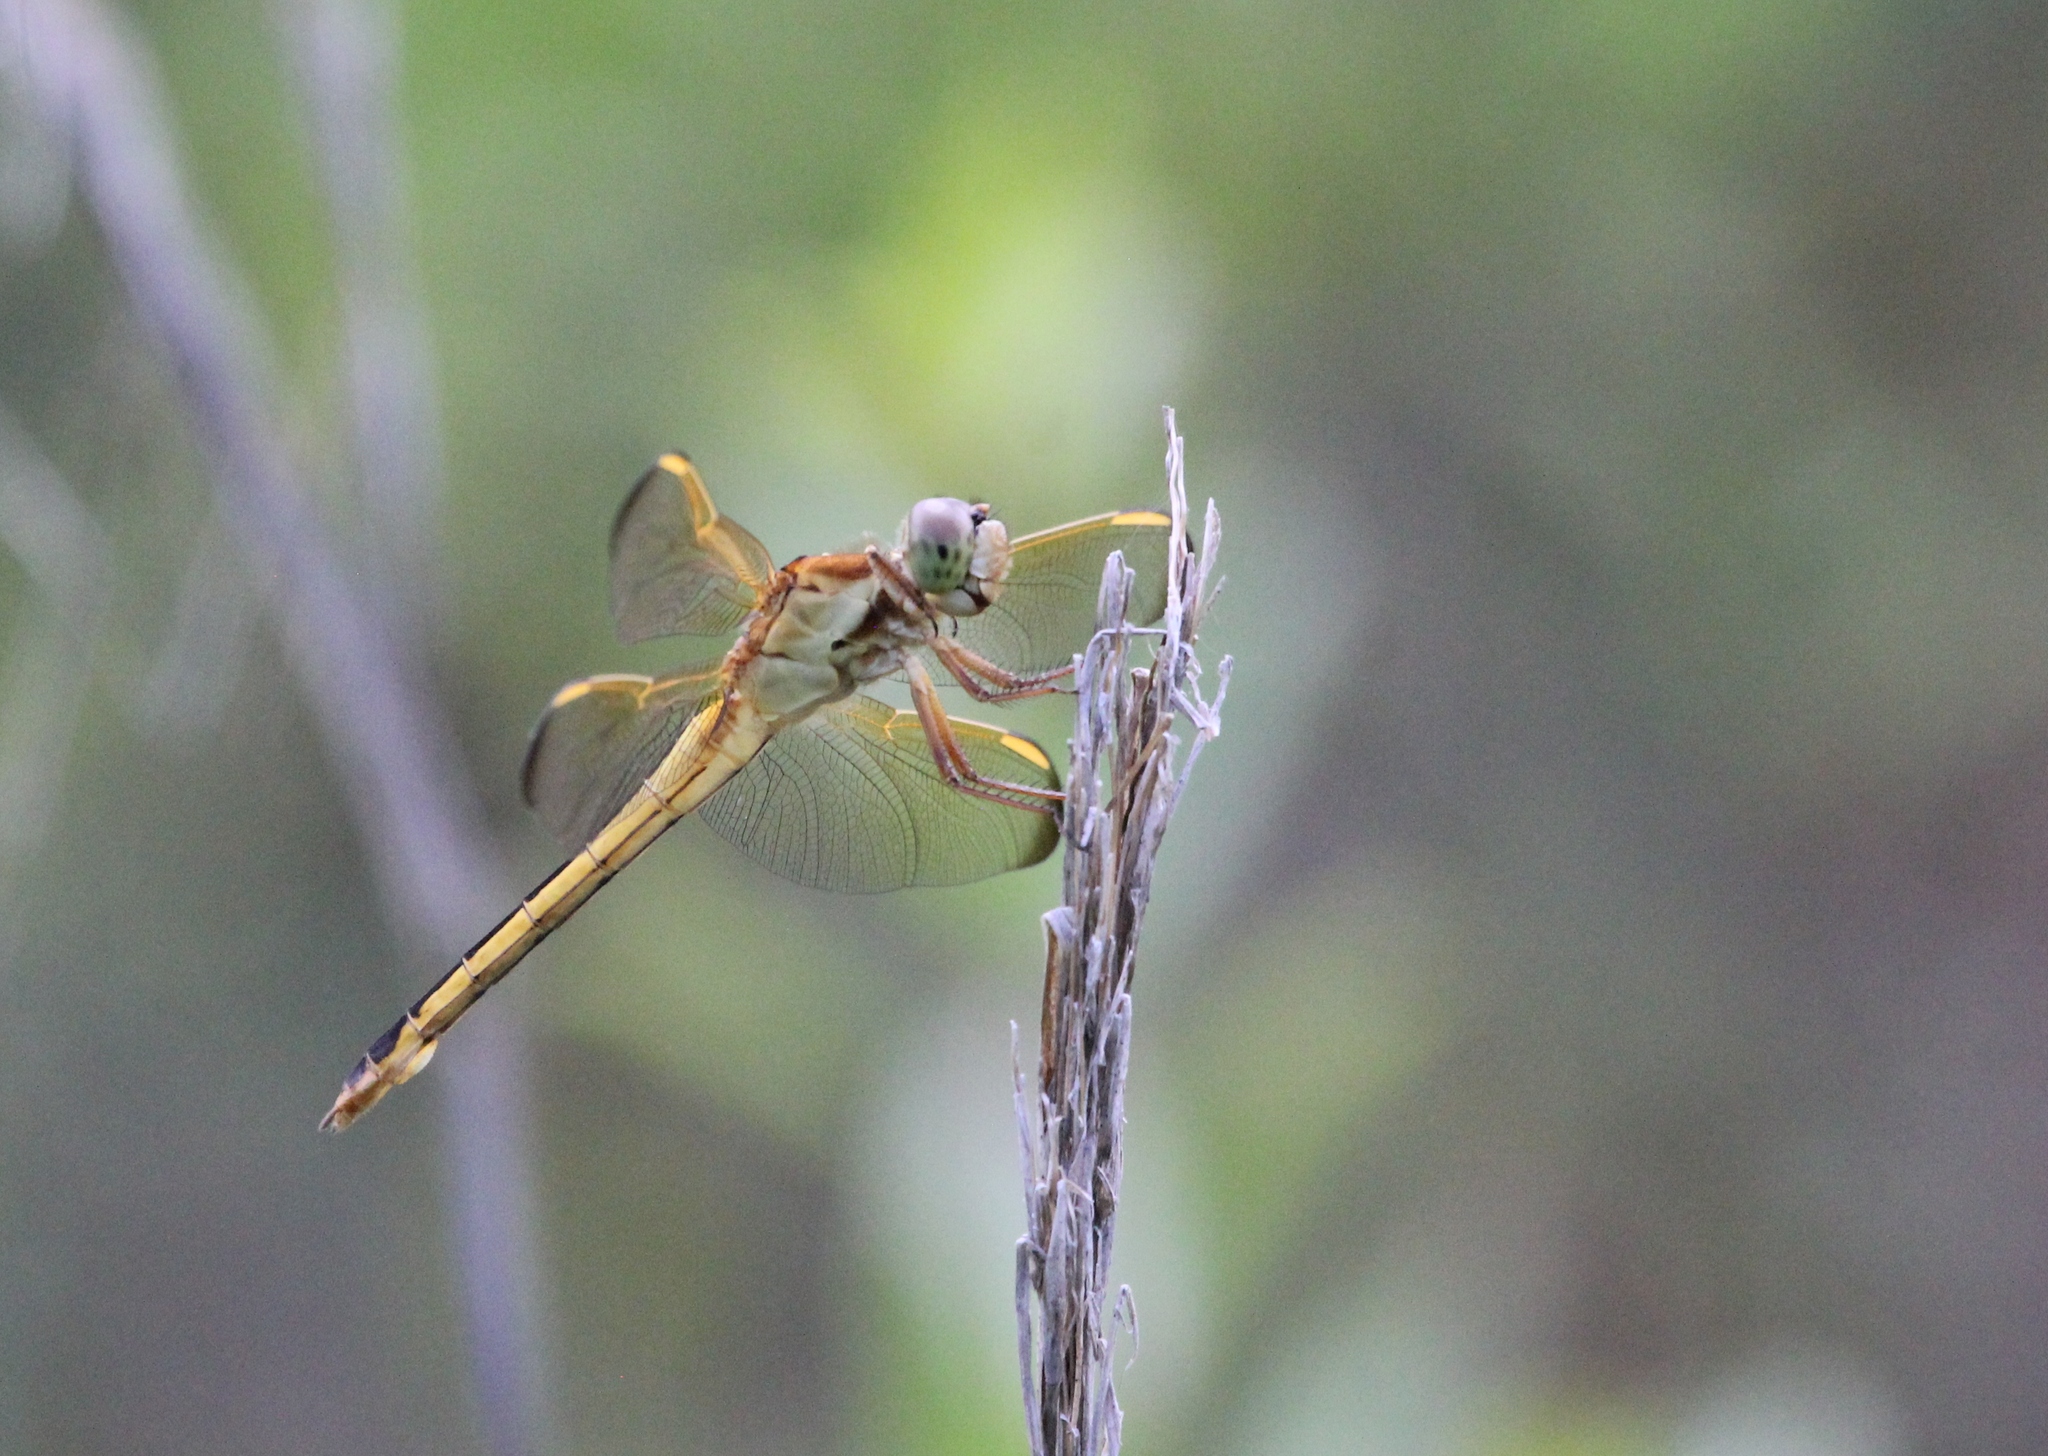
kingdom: Animalia
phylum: Arthropoda
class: Insecta
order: Odonata
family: Libellulidae
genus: Libellula
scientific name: Libellula needhami
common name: Needham's skimmer
